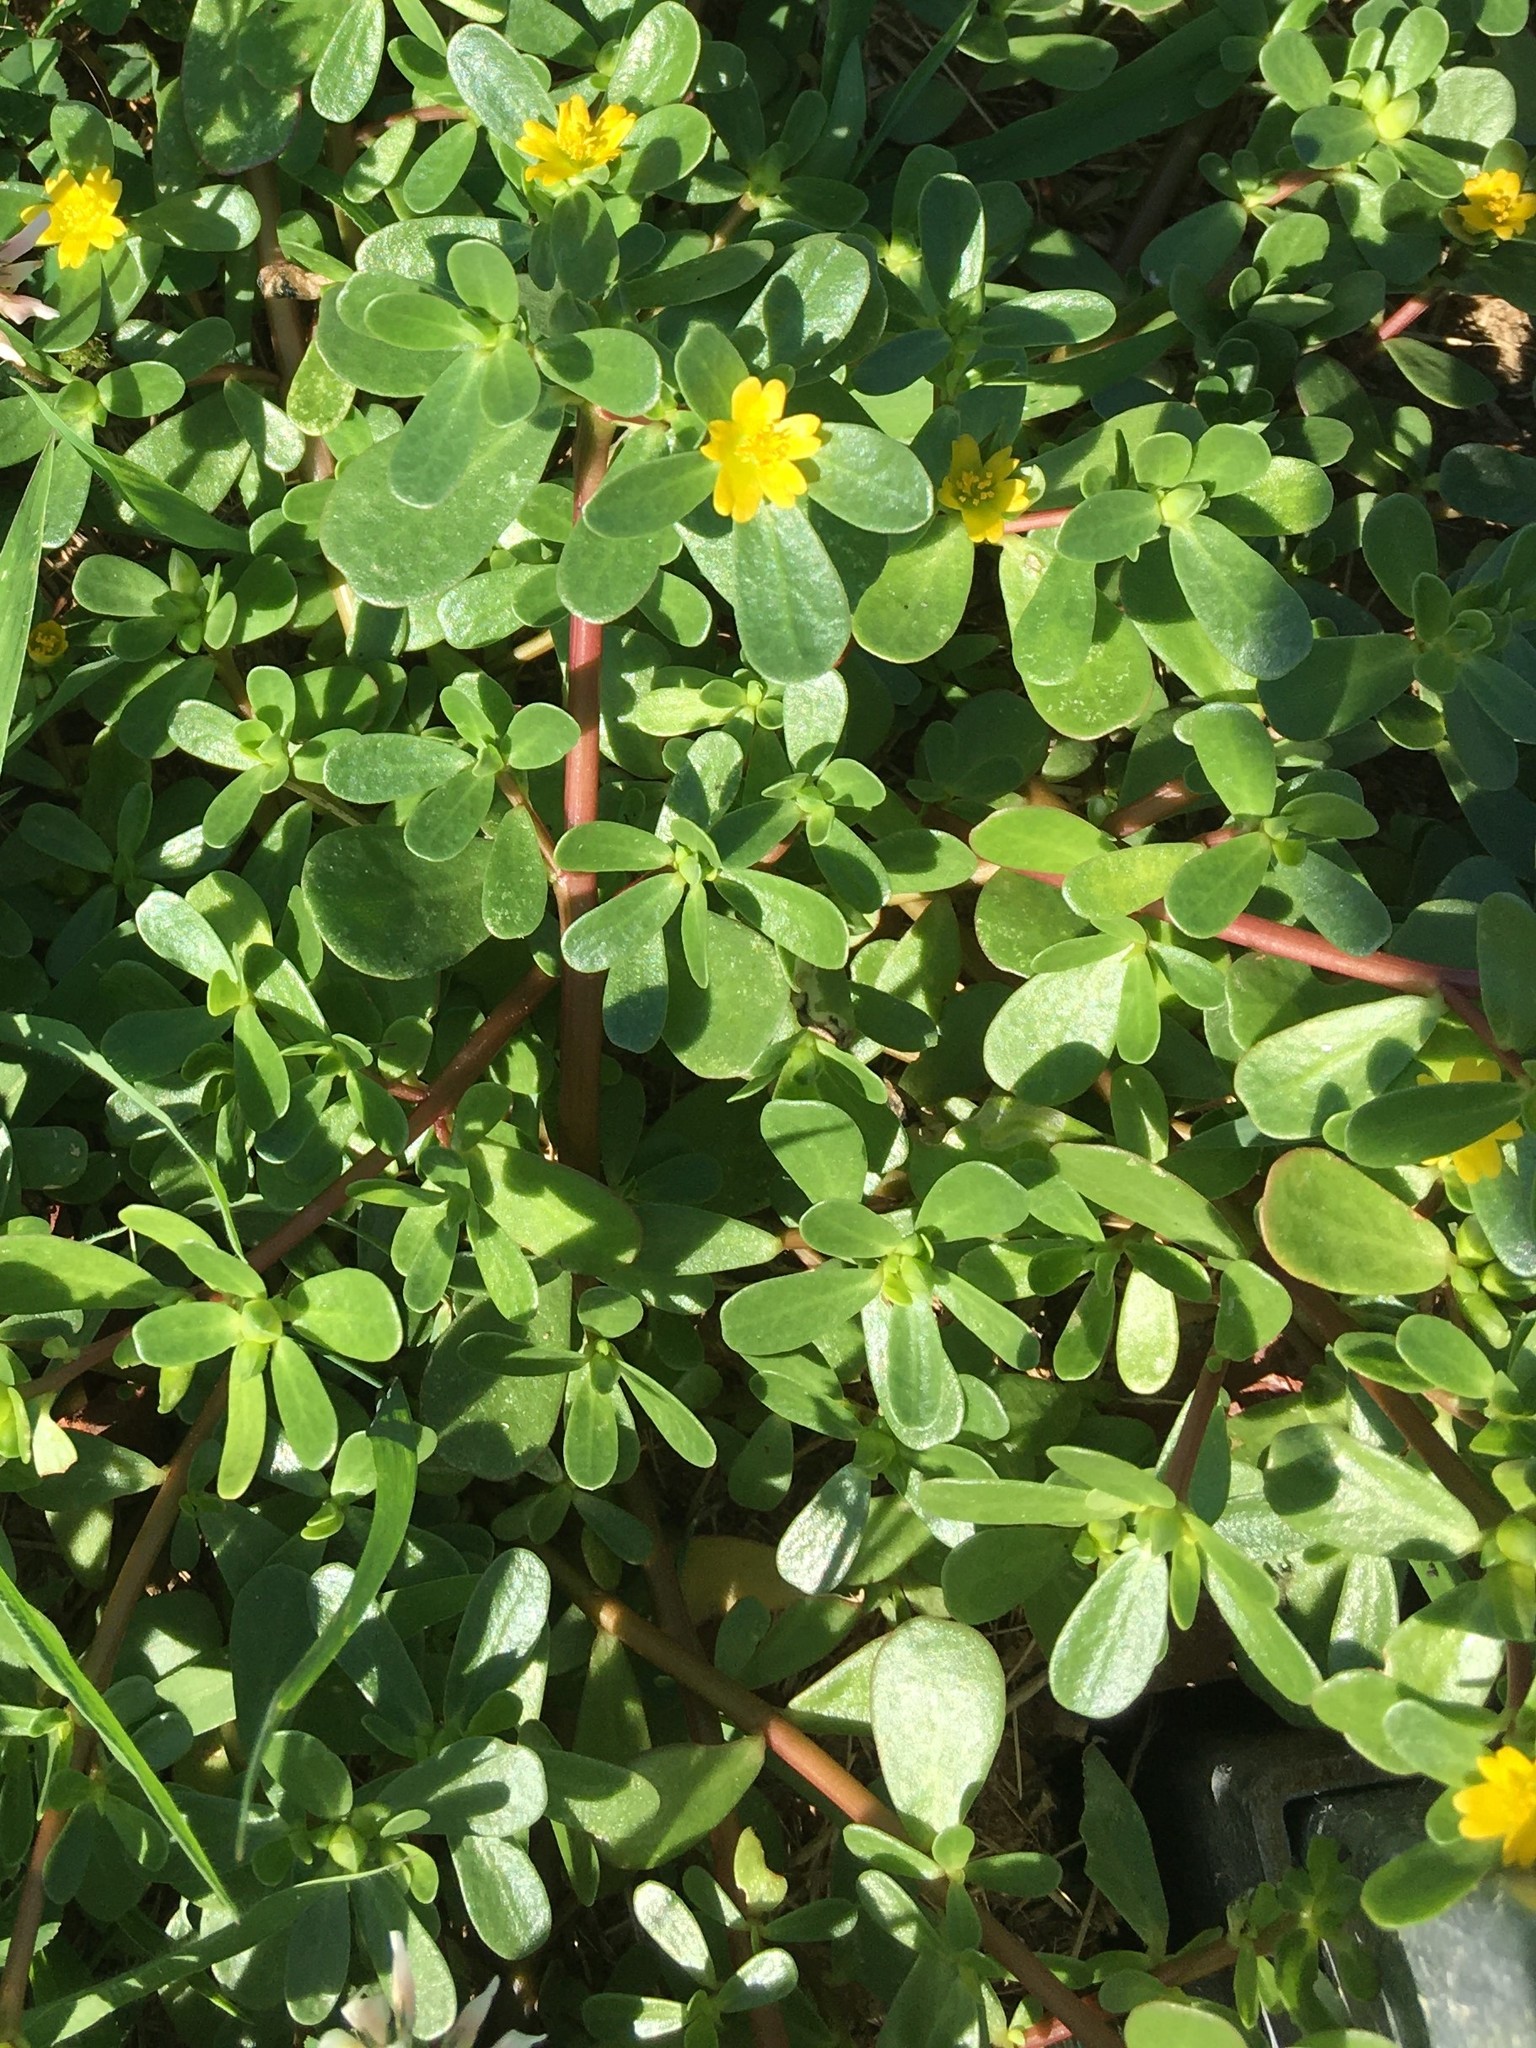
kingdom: Plantae
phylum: Tracheophyta
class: Magnoliopsida
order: Caryophyllales
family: Portulacaceae
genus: Portulaca
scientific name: Portulaca oleracea
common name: Common purslane
